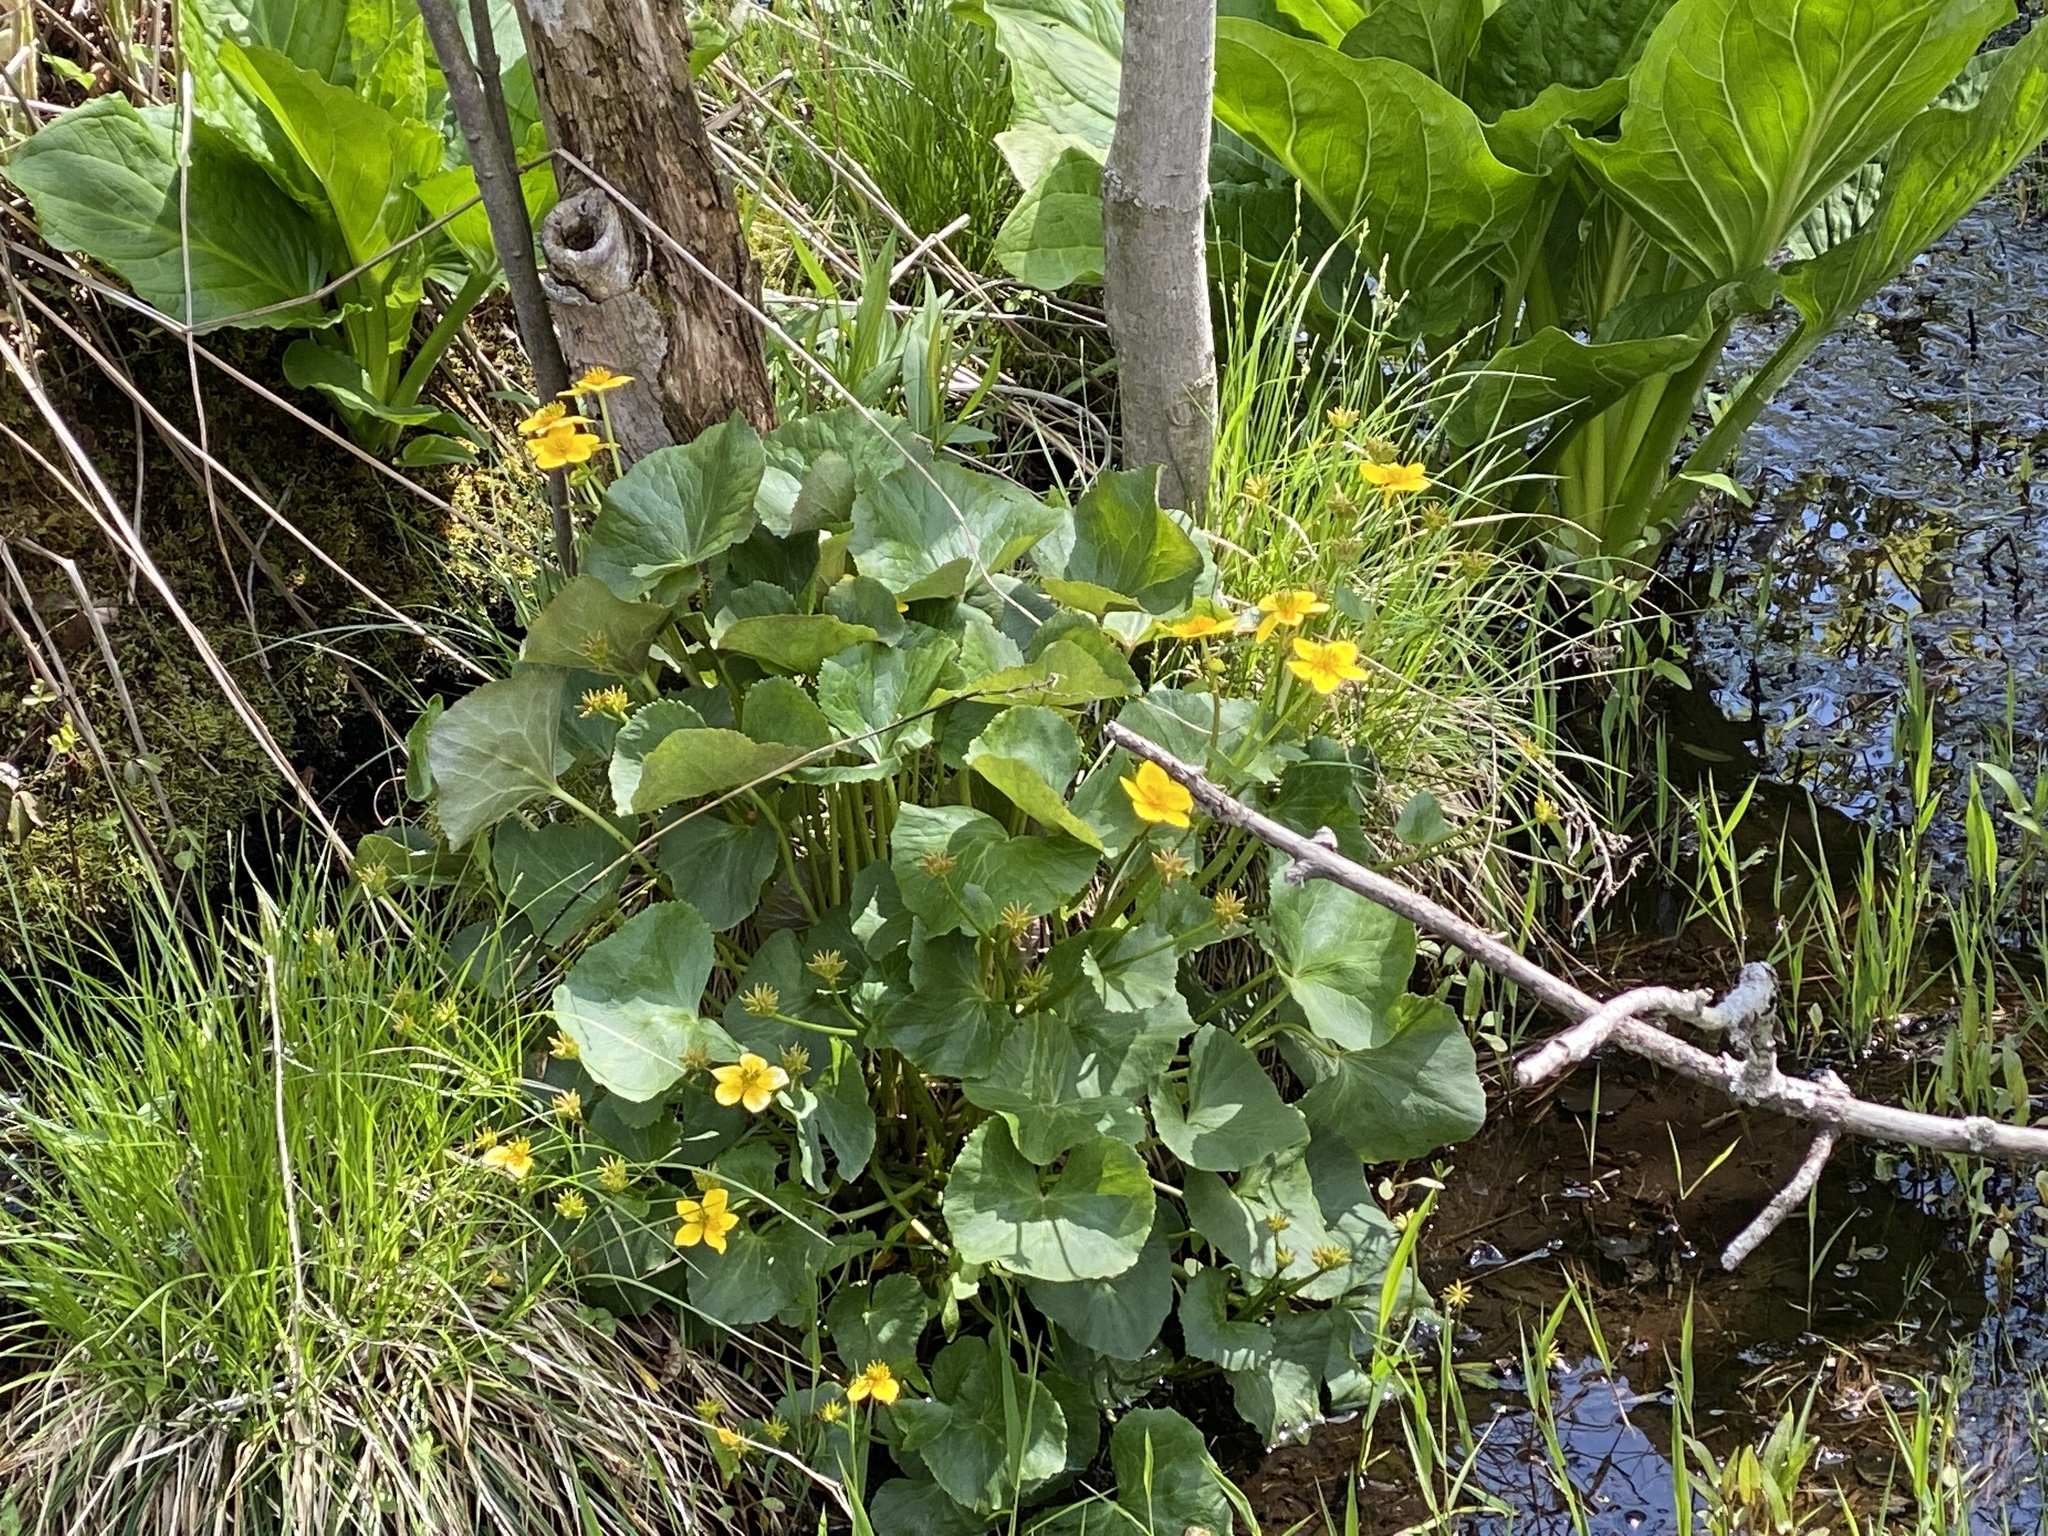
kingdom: Plantae
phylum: Tracheophyta
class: Magnoliopsida
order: Ranunculales
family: Ranunculaceae
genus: Caltha
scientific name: Caltha palustris
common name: Marsh marigold
